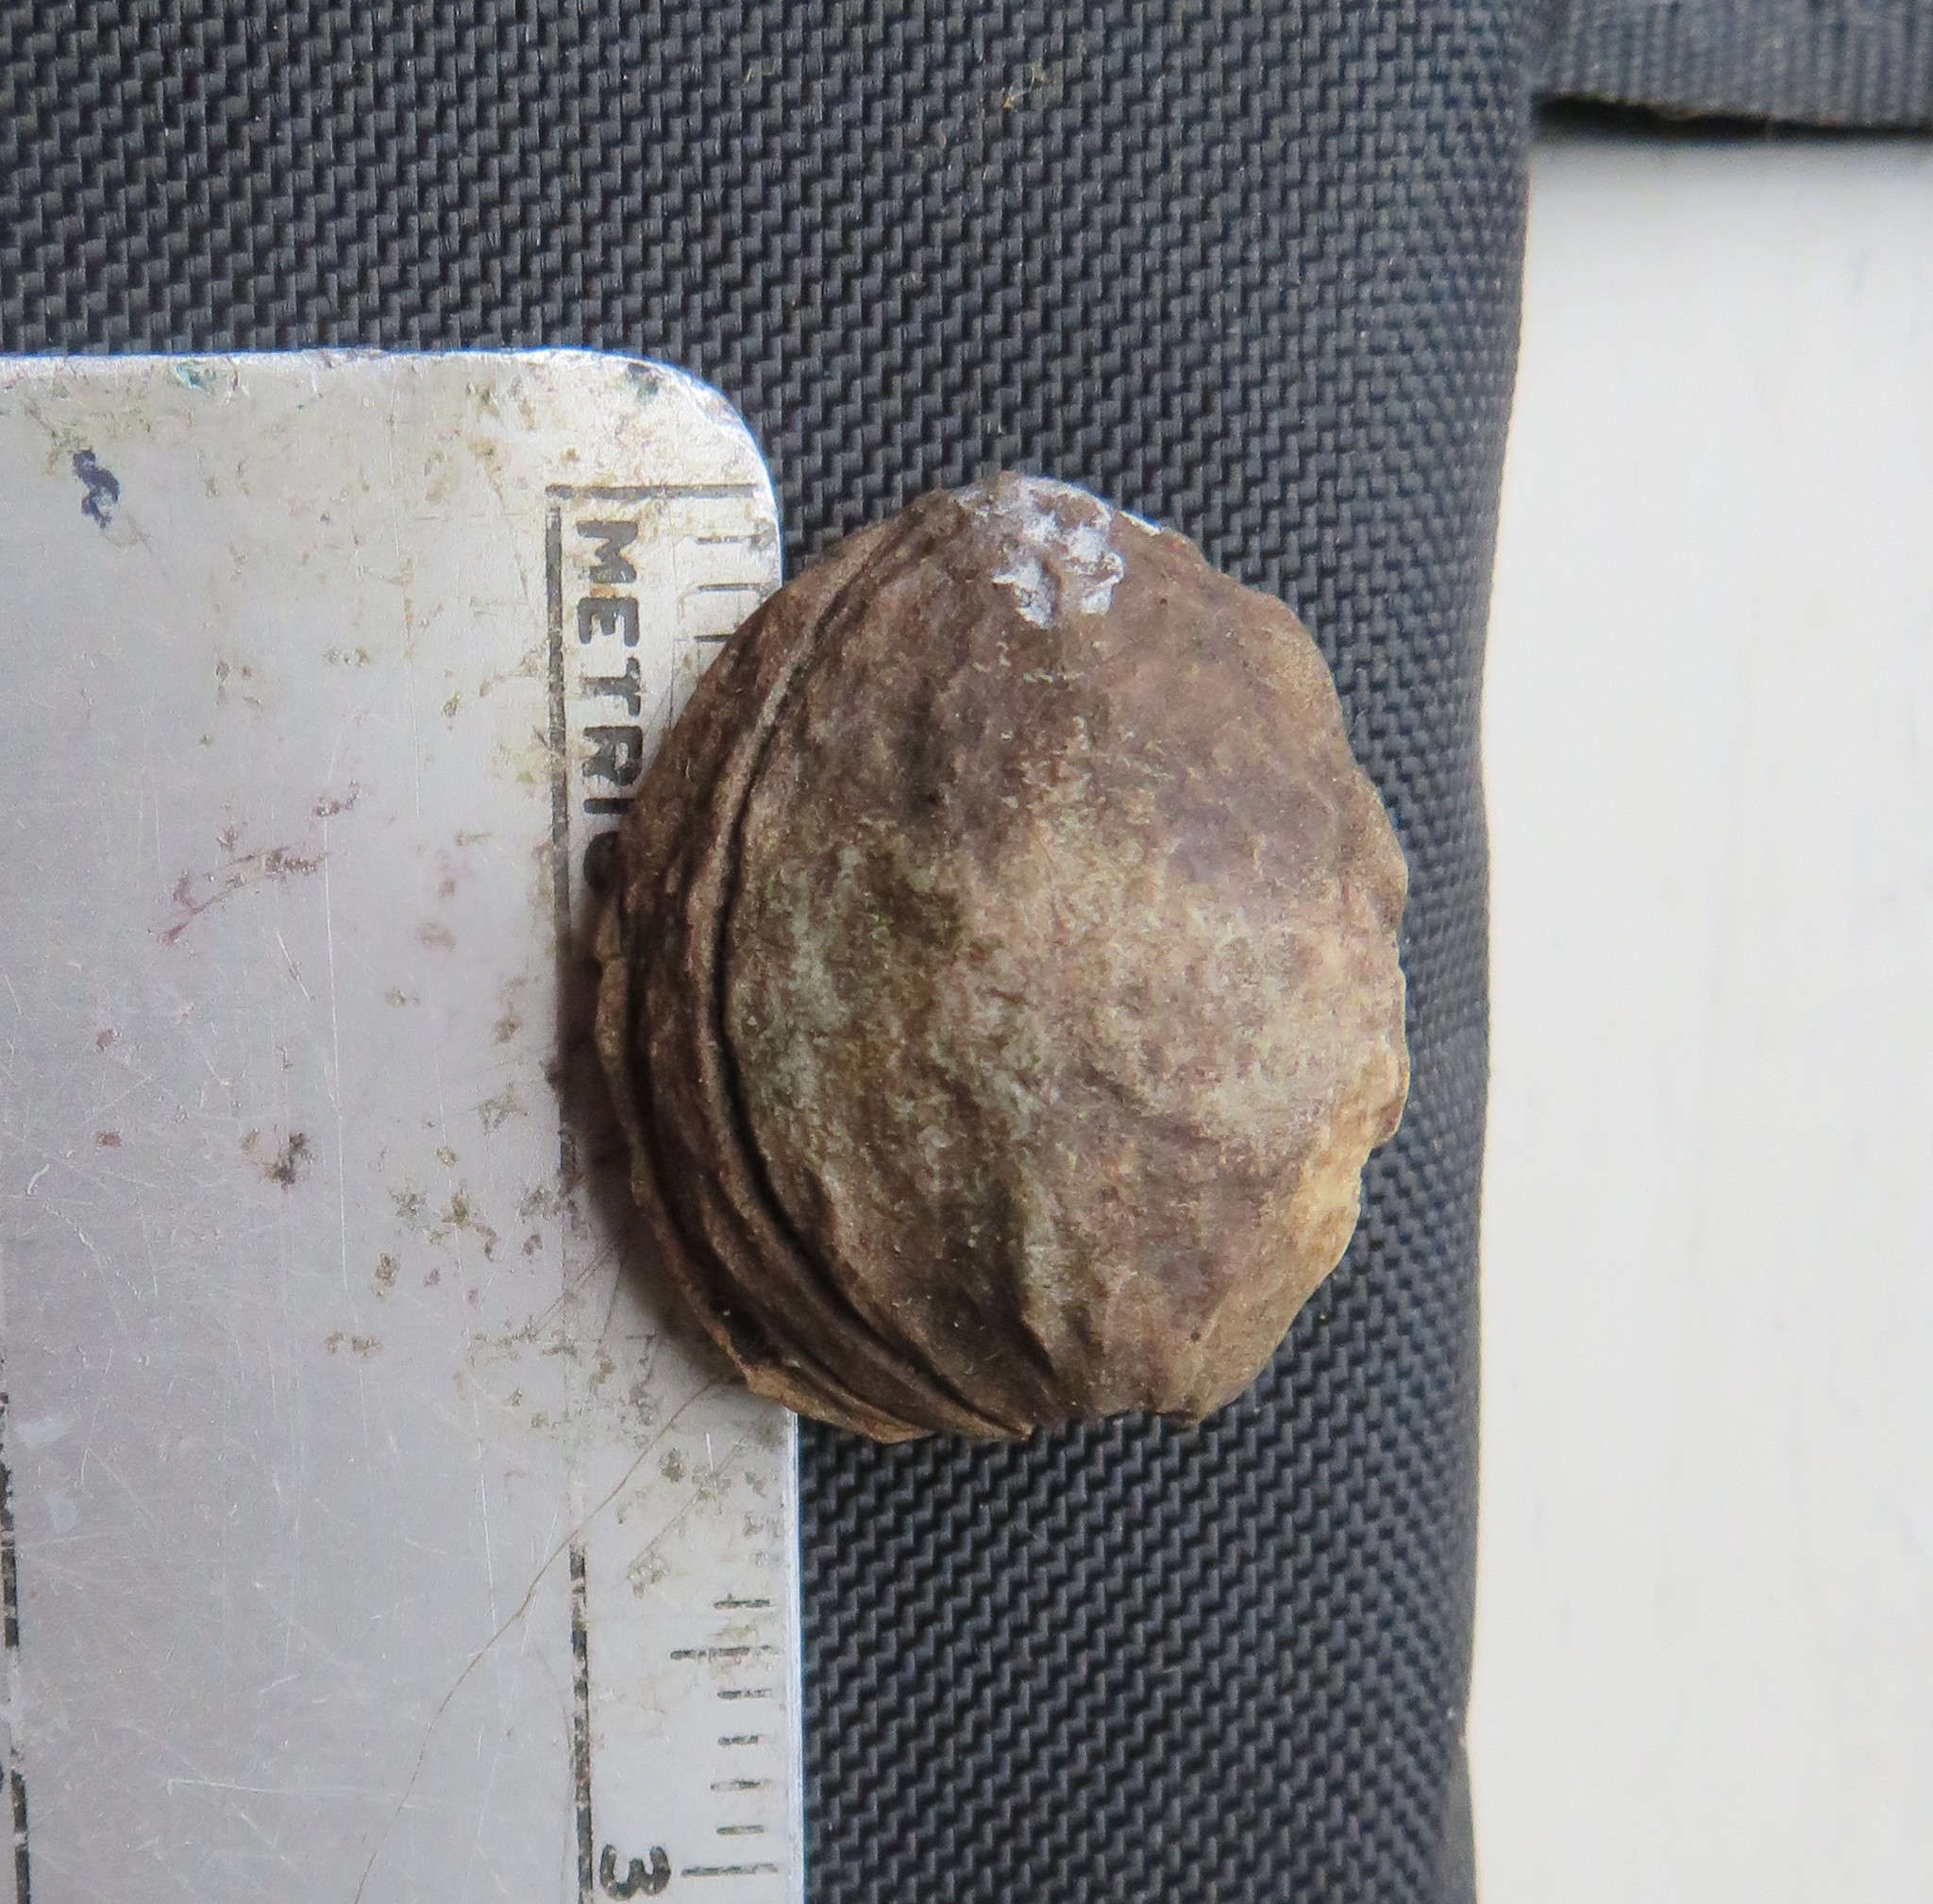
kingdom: Plantae
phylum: Tracheophyta
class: Magnoliopsida
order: Rosales
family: Rosaceae
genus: Prunus
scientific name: Prunus armeniaca
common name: Apricot
